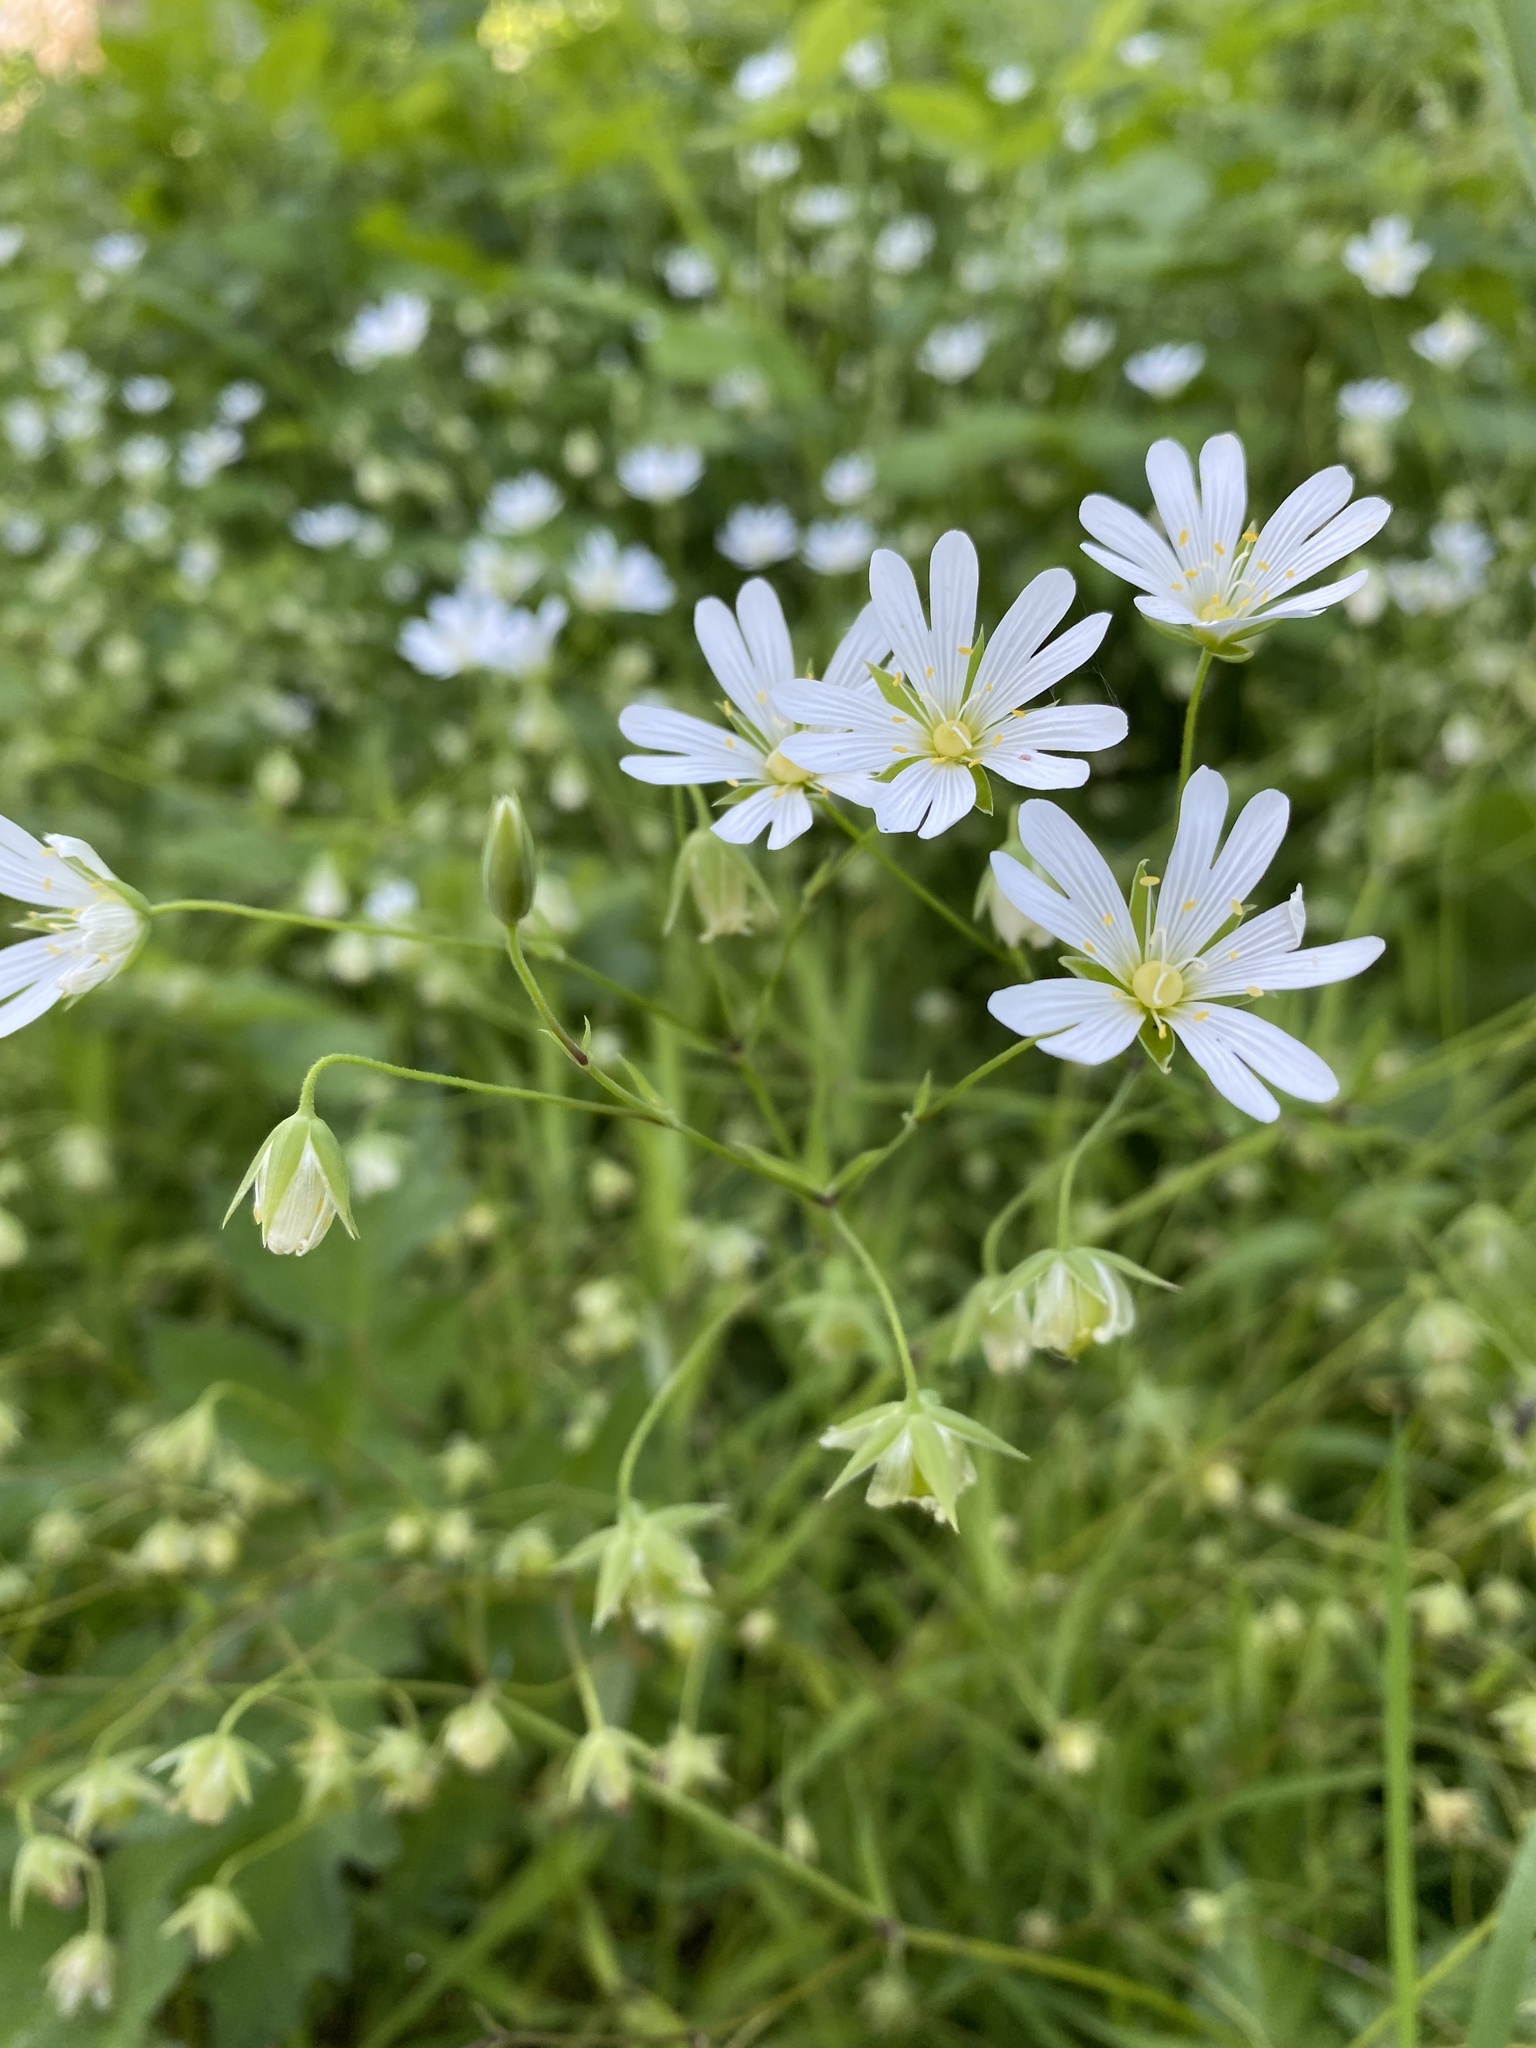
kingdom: Plantae
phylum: Tracheophyta
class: Magnoliopsida
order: Caryophyllales
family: Caryophyllaceae
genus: Rabelera
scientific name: Rabelera holostea
